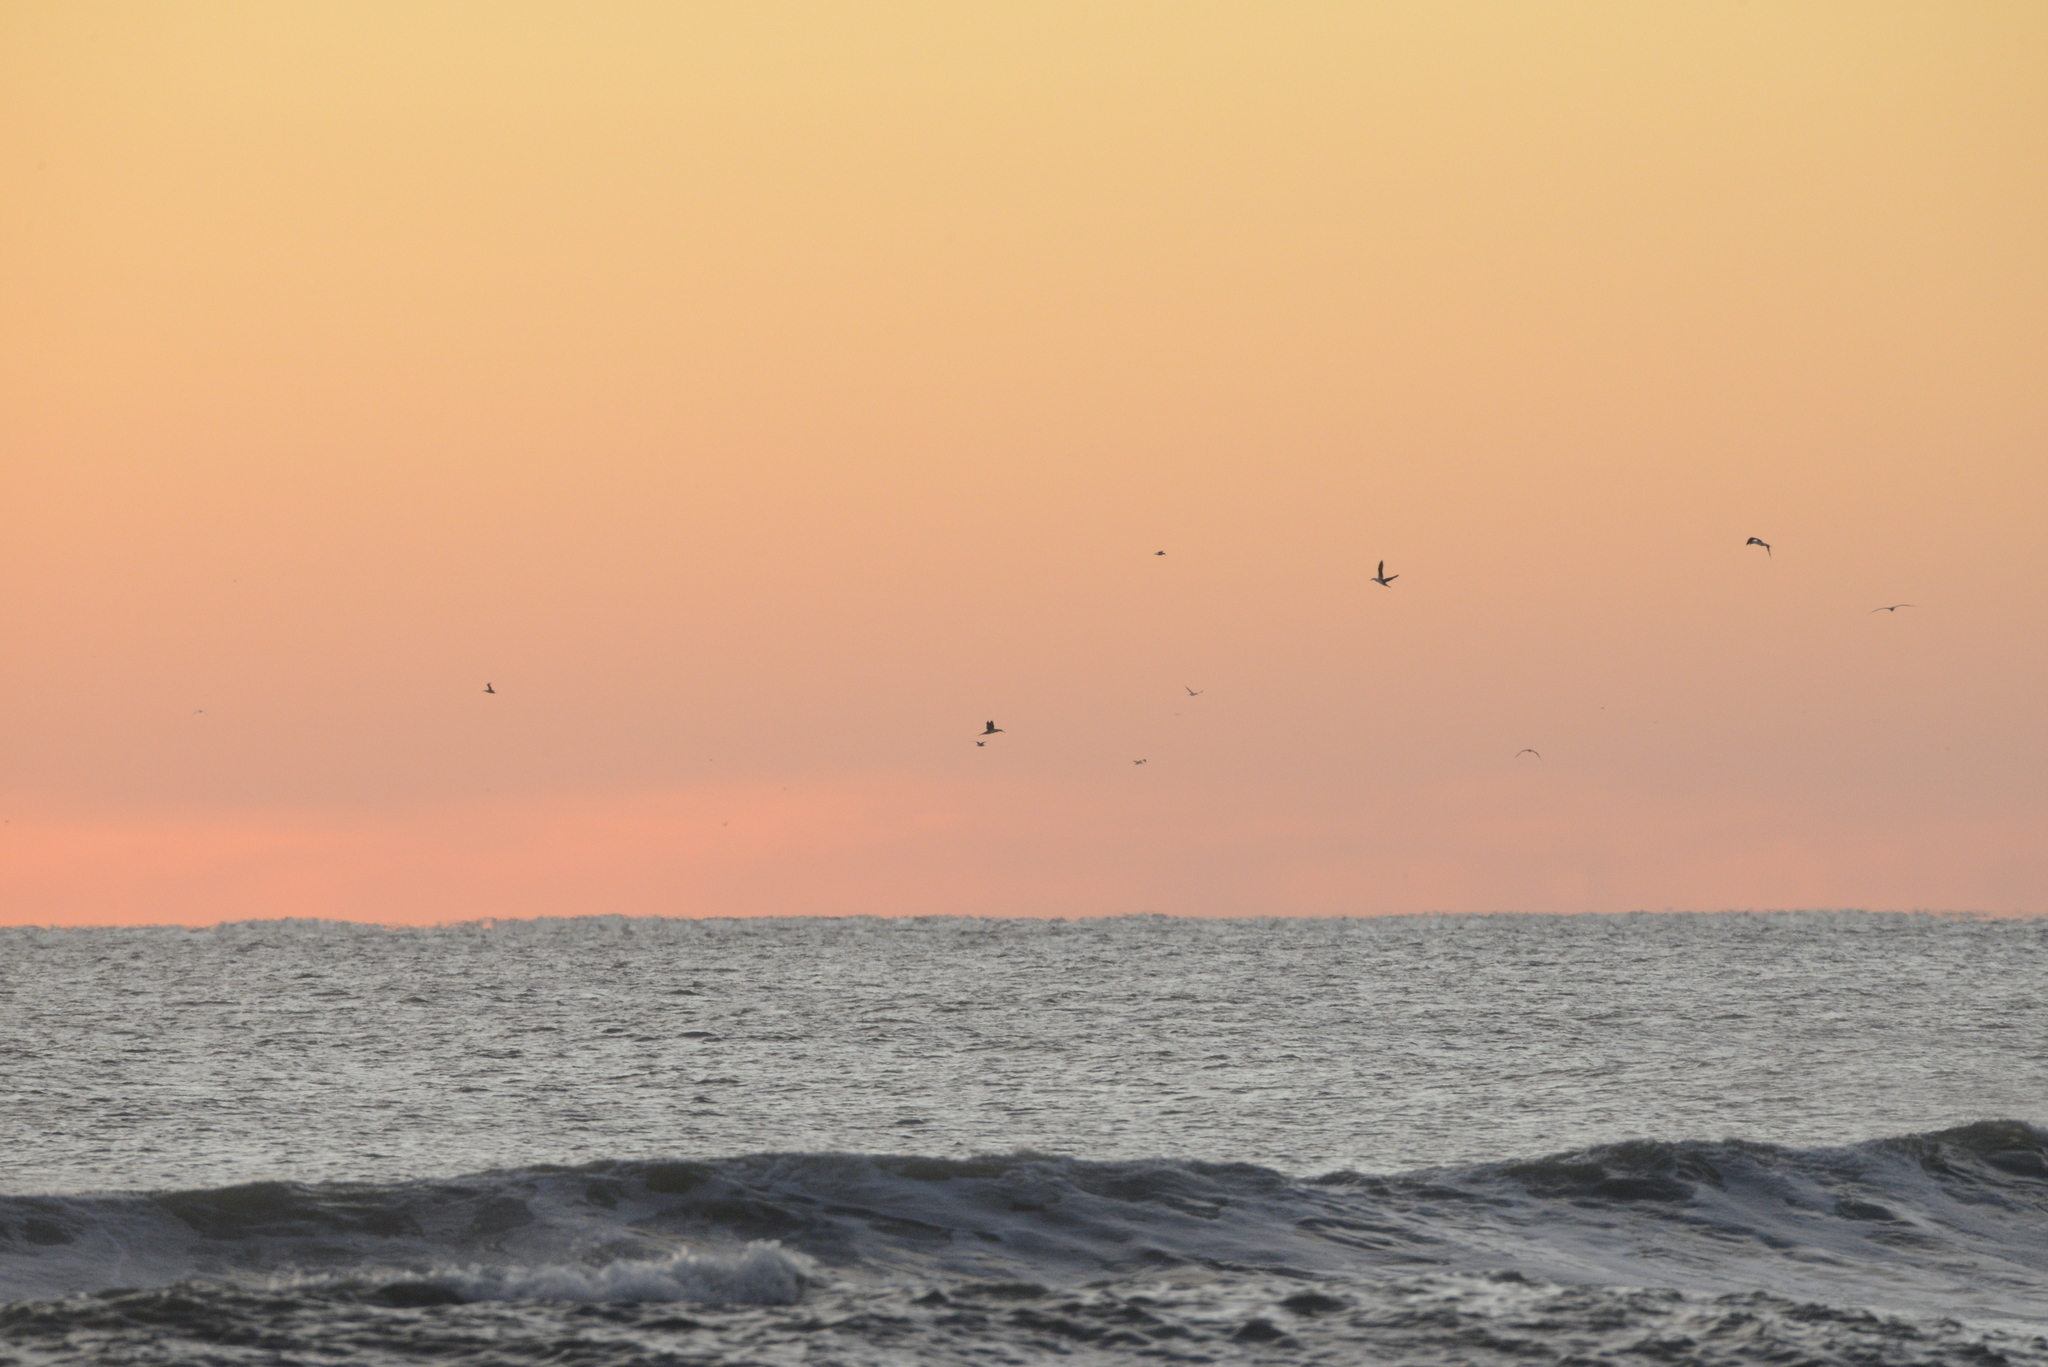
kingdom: Animalia
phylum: Chordata
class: Aves
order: Suliformes
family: Sulidae
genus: Morus
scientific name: Morus bassanus
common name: Northern gannet
